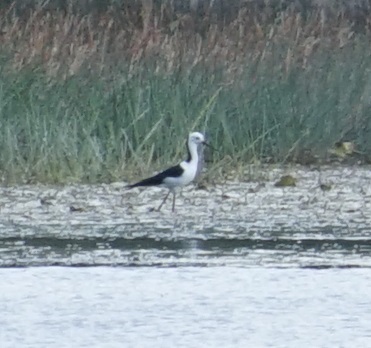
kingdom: Animalia
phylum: Chordata
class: Aves
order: Charadriiformes
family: Recurvirostridae
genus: Himantopus
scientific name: Himantopus leucocephalus
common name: White-headed stilt
